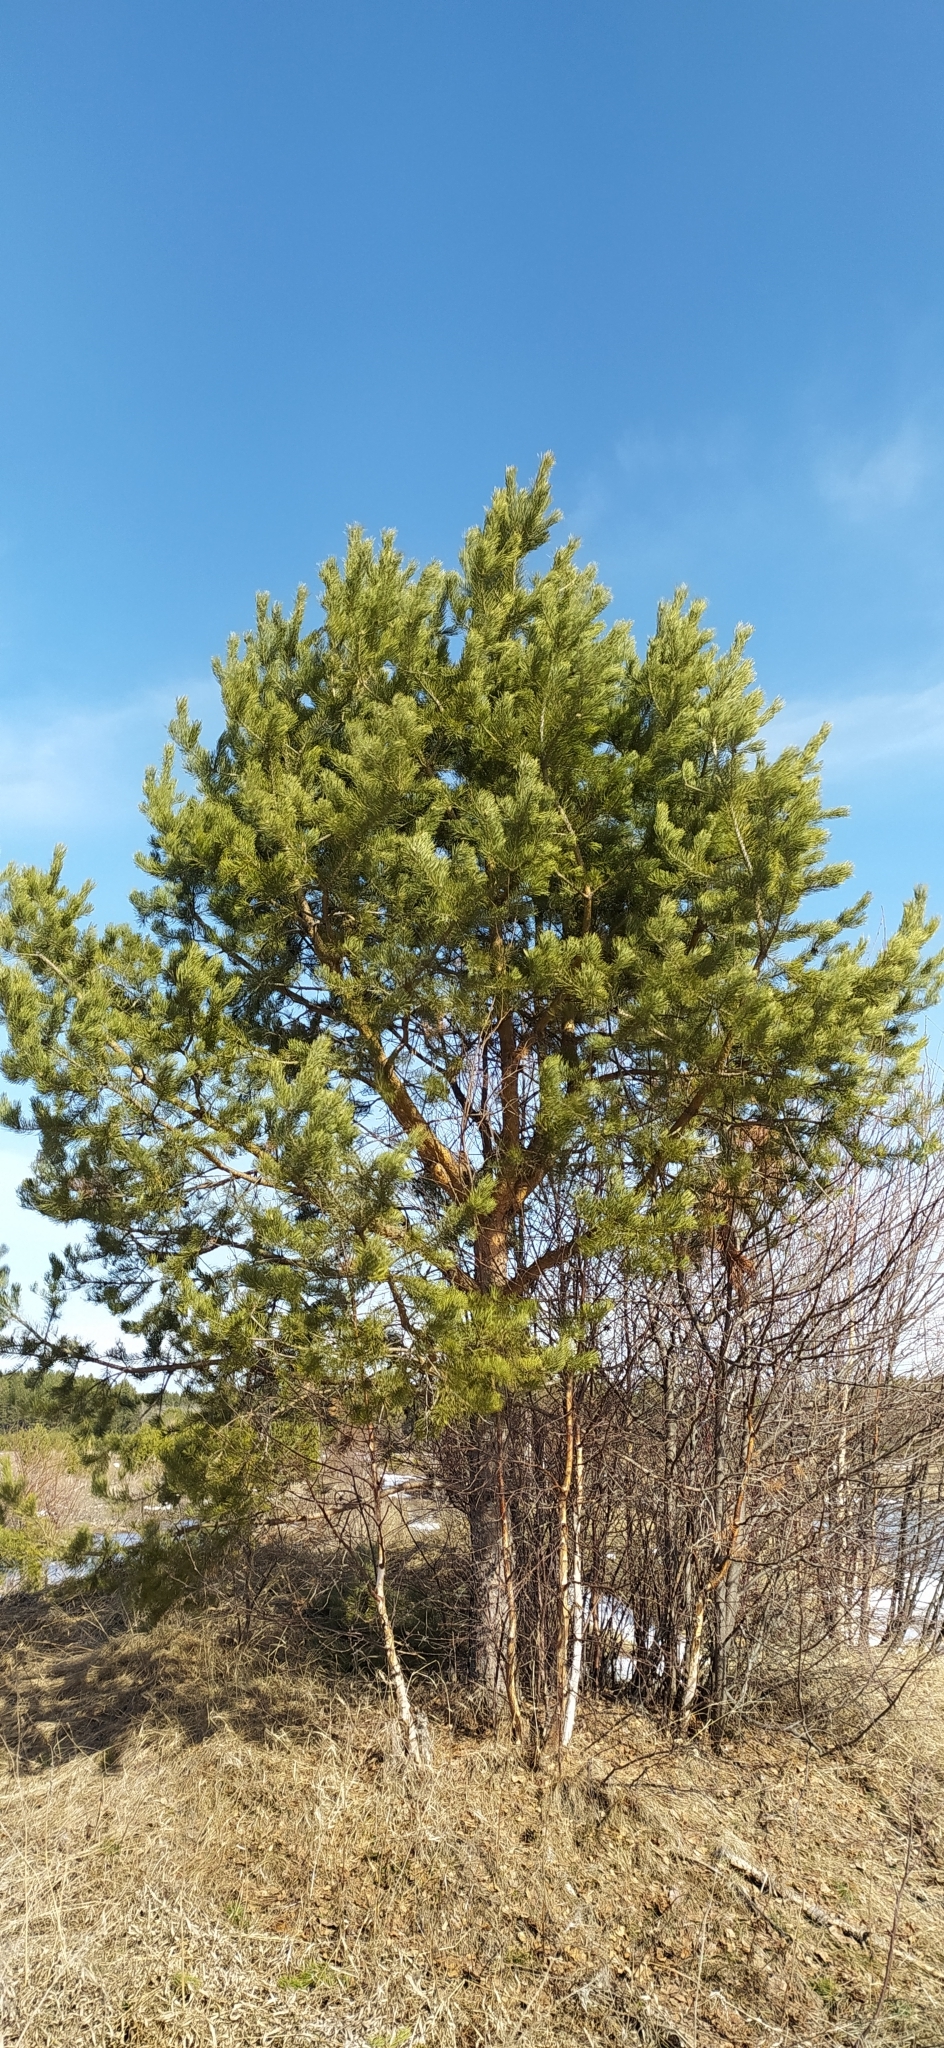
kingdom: Plantae
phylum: Tracheophyta
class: Pinopsida
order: Pinales
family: Pinaceae
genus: Pinus
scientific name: Pinus sylvestris
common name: Scots pine
